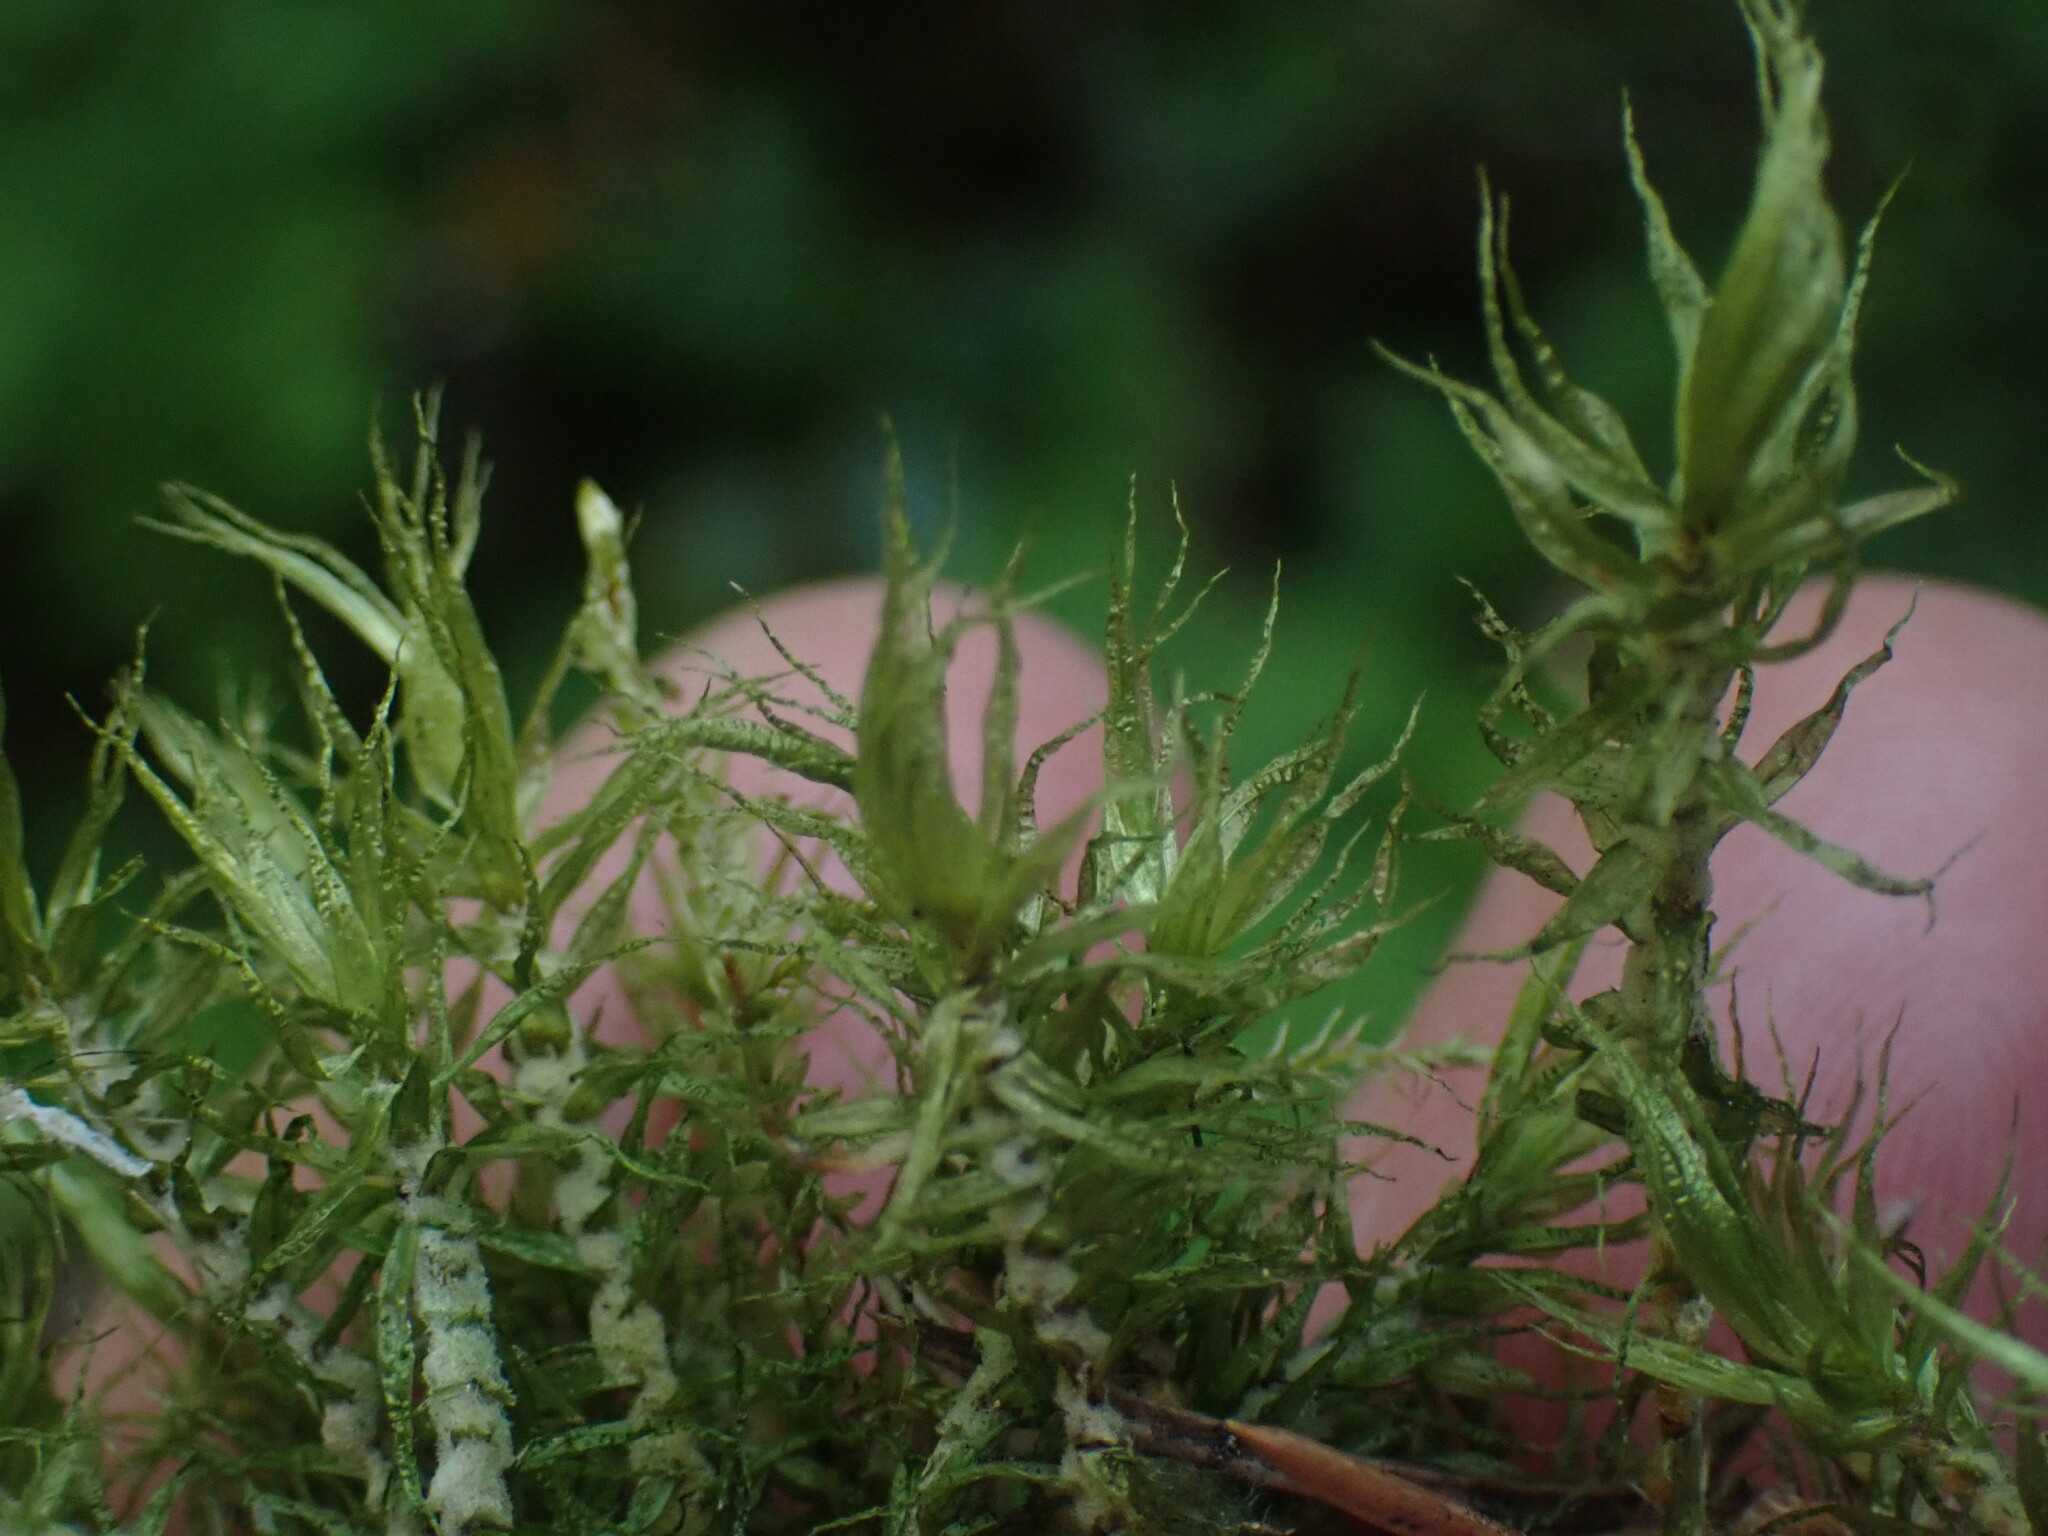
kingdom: Plantae
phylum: Bryophyta
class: Bryopsida
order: Dicranales
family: Dicranaceae
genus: Dicranum
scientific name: Dicranum polysetum
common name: Rugose fork-moss
